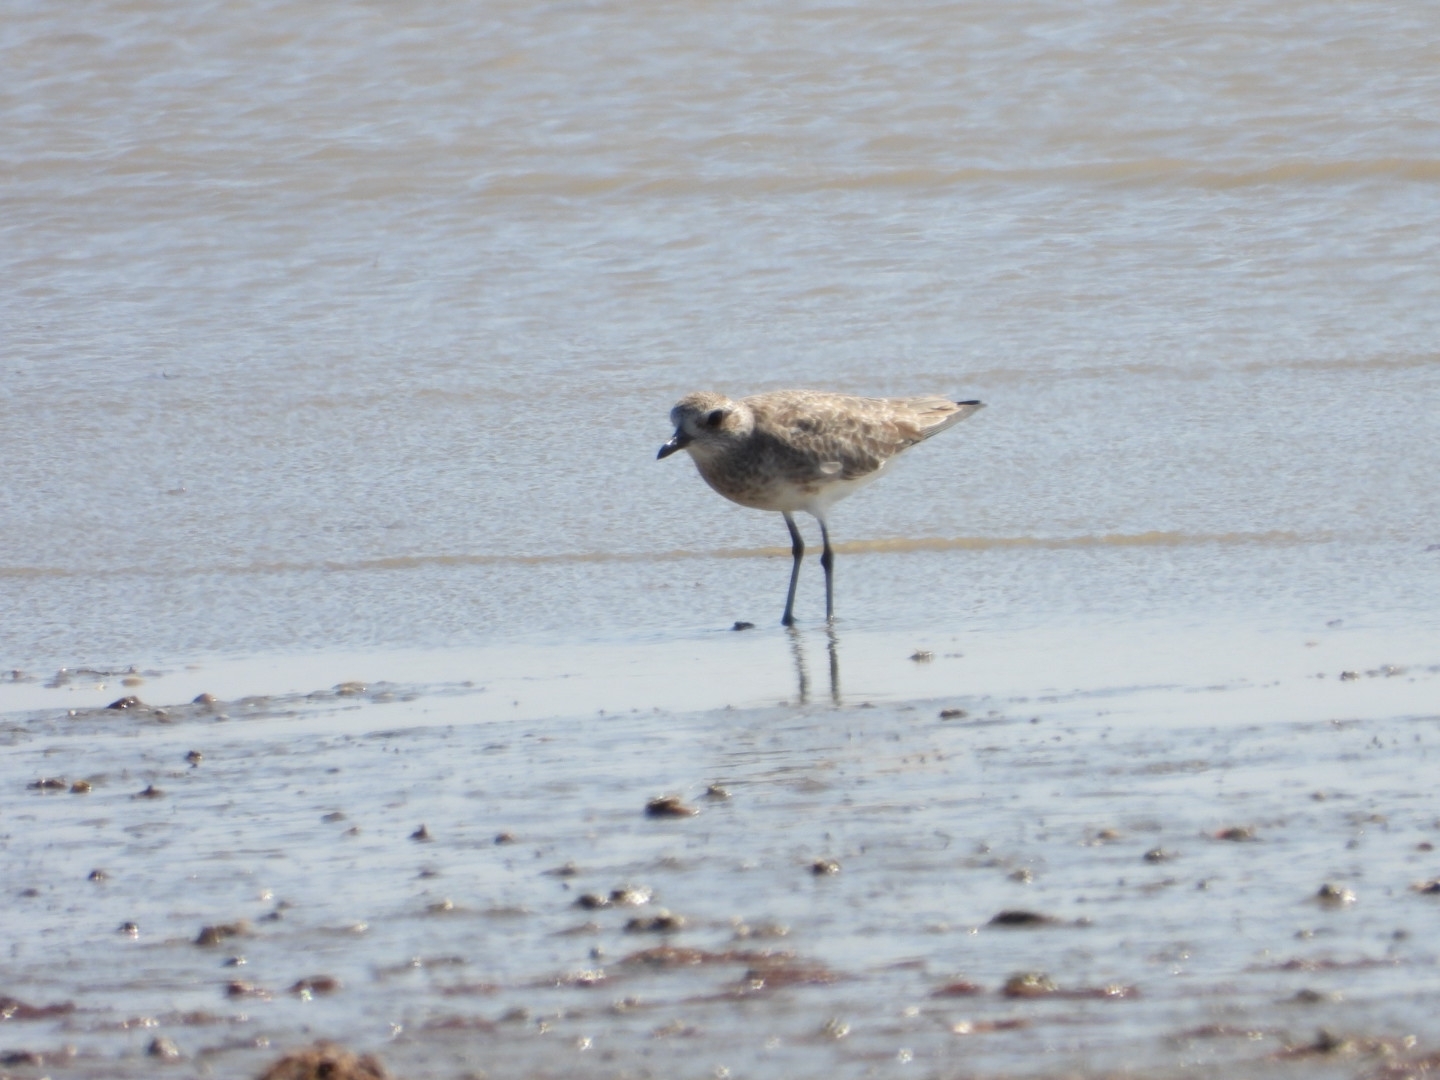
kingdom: Animalia
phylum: Chordata
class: Aves
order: Charadriiformes
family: Charadriidae
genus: Pluvialis
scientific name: Pluvialis squatarola
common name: Grey plover
